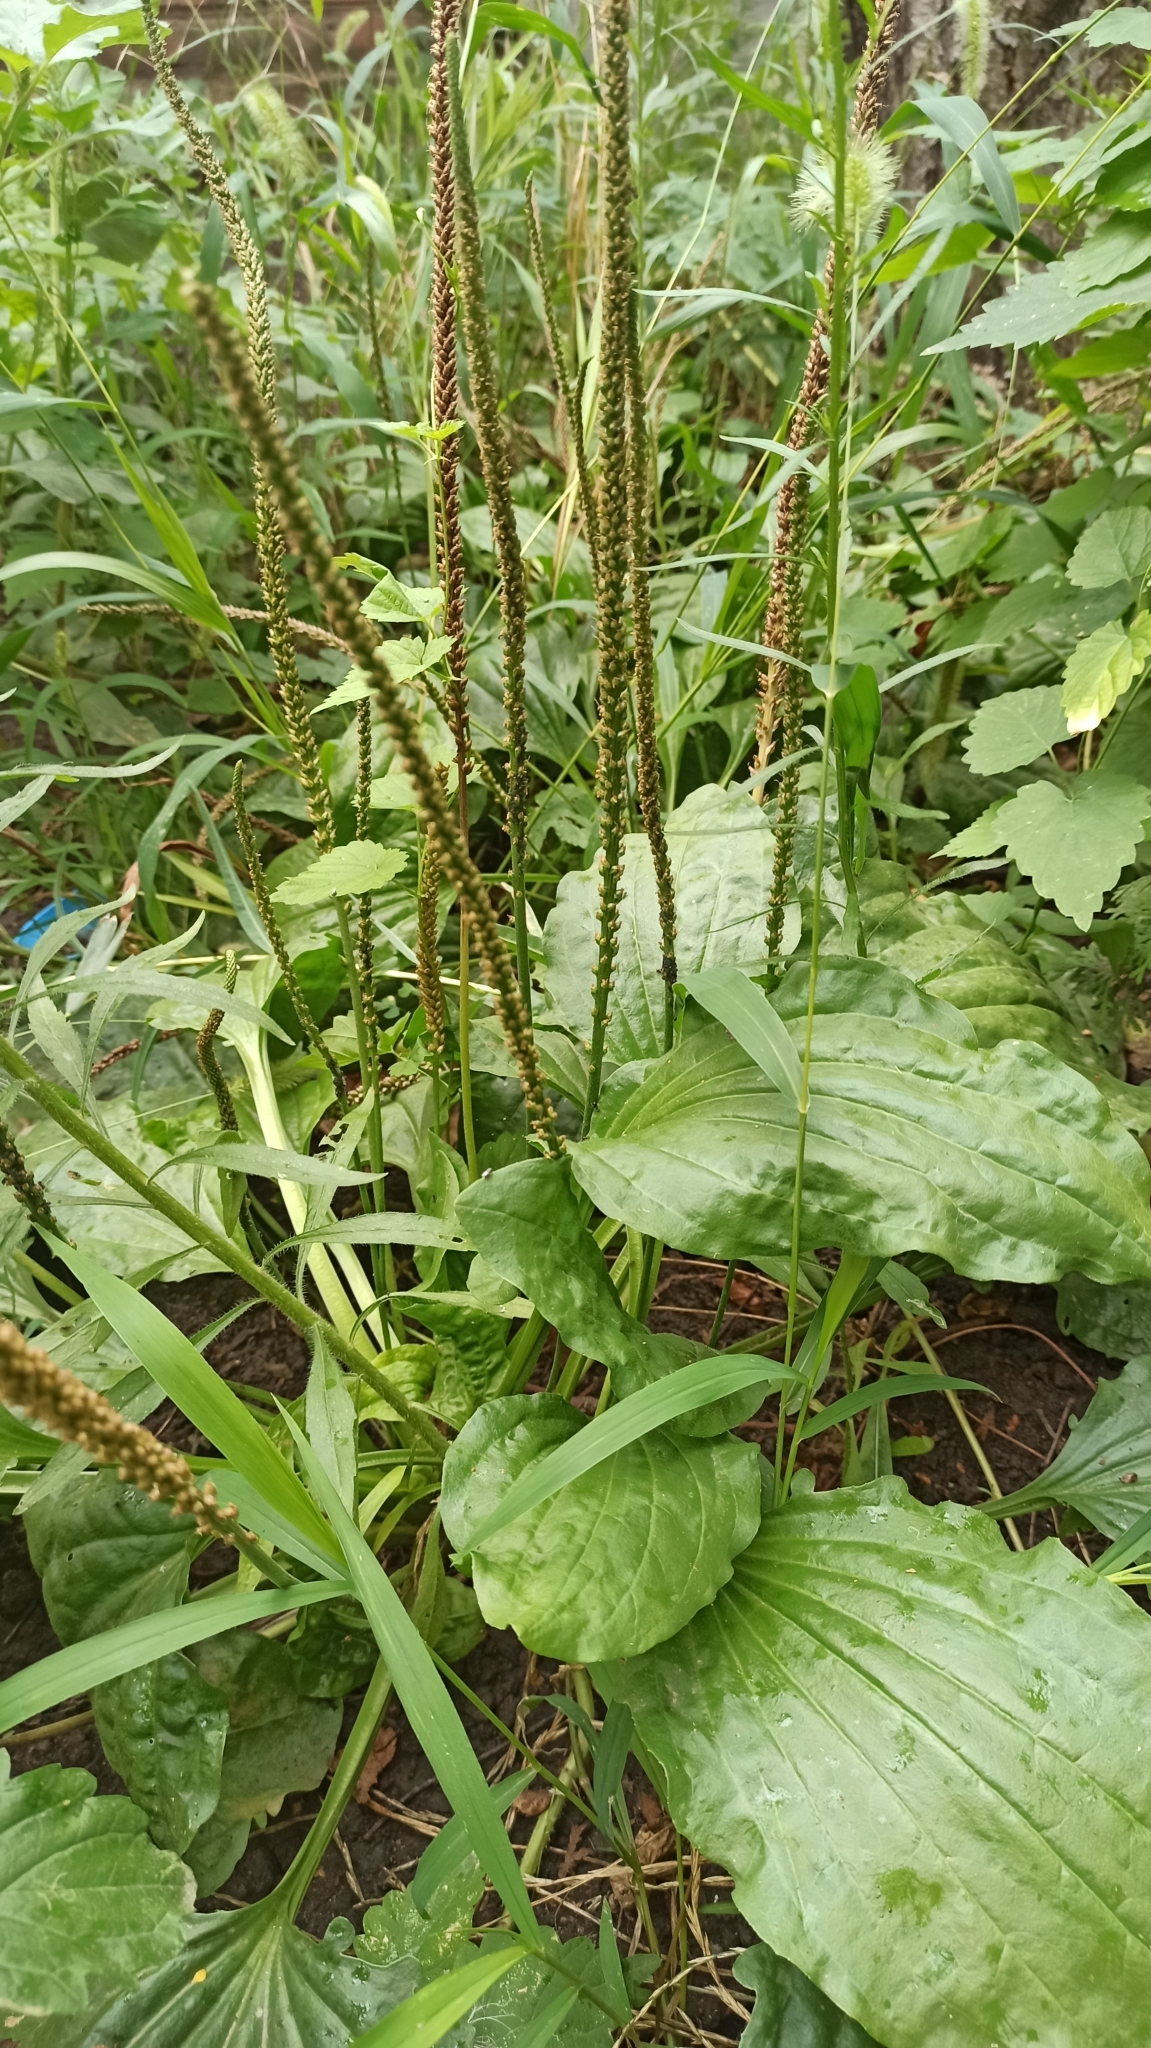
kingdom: Plantae
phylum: Tracheophyta
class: Magnoliopsida
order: Lamiales
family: Plantaginaceae
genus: Plantago
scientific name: Plantago major
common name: Common plantain
